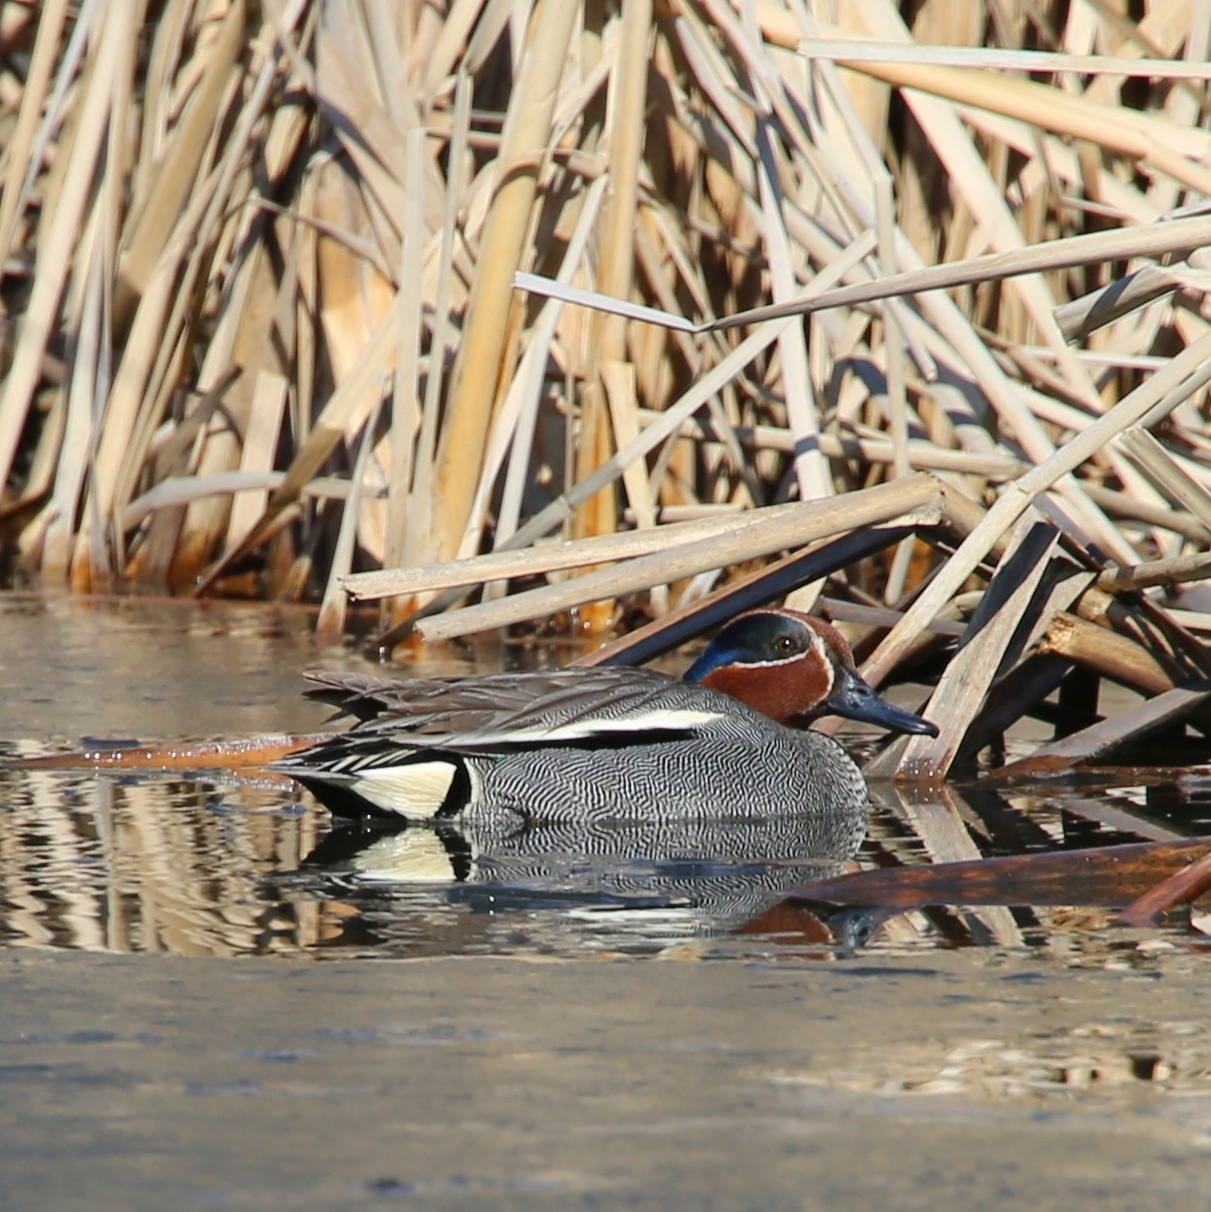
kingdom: Animalia
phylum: Chordata
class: Aves
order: Anseriformes
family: Anatidae
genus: Anas
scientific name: Anas crecca
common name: Eurasian teal
